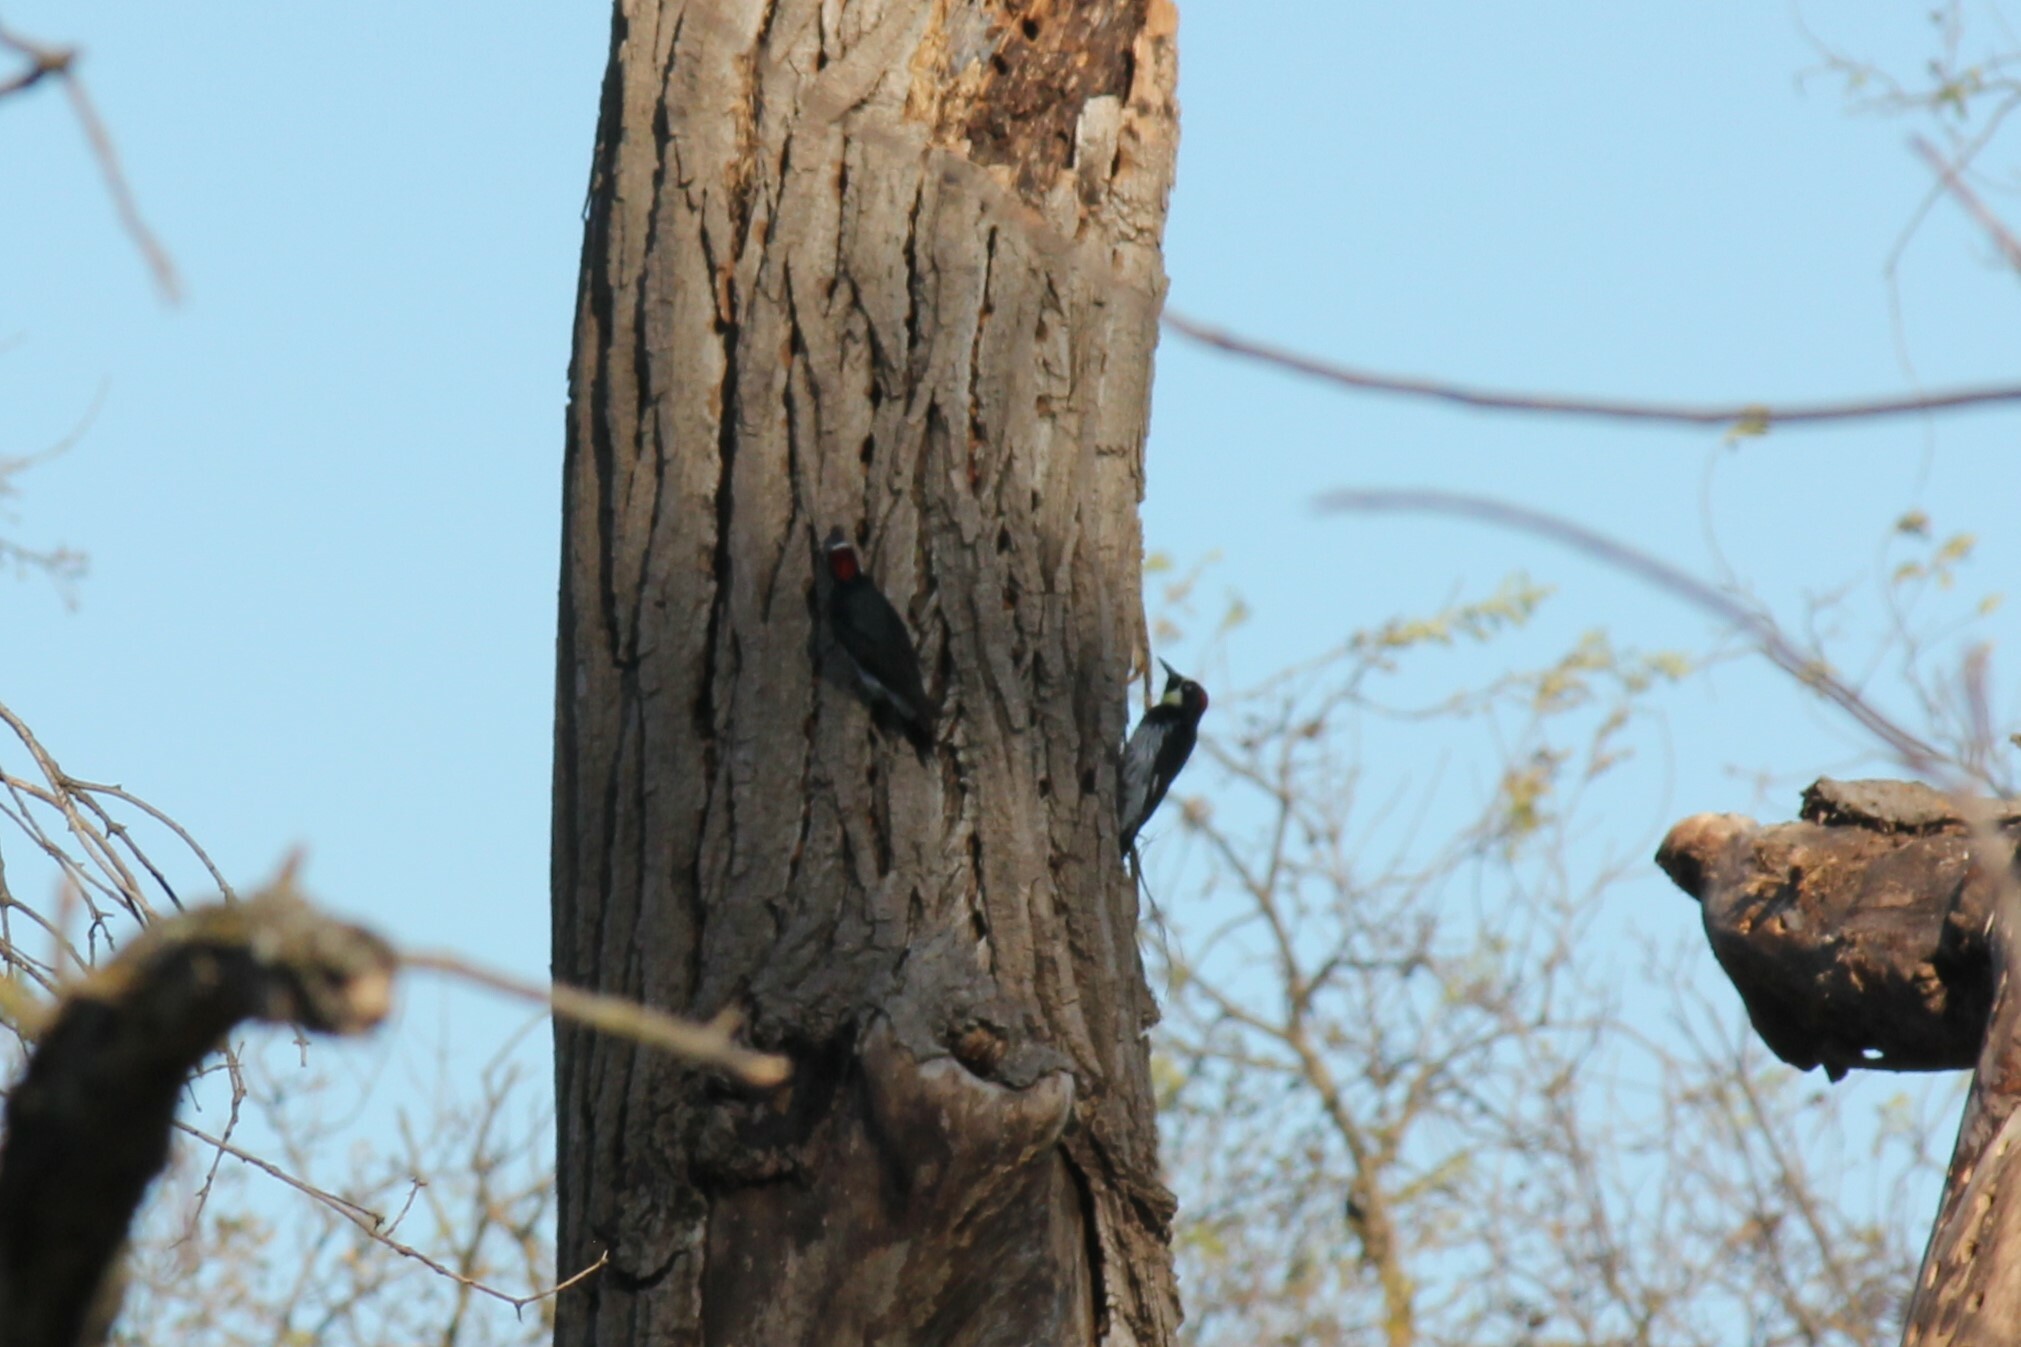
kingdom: Animalia
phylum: Chordata
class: Aves
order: Piciformes
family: Picidae
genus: Melanerpes
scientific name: Melanerpes formicivorus
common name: Acorn woodpecker
